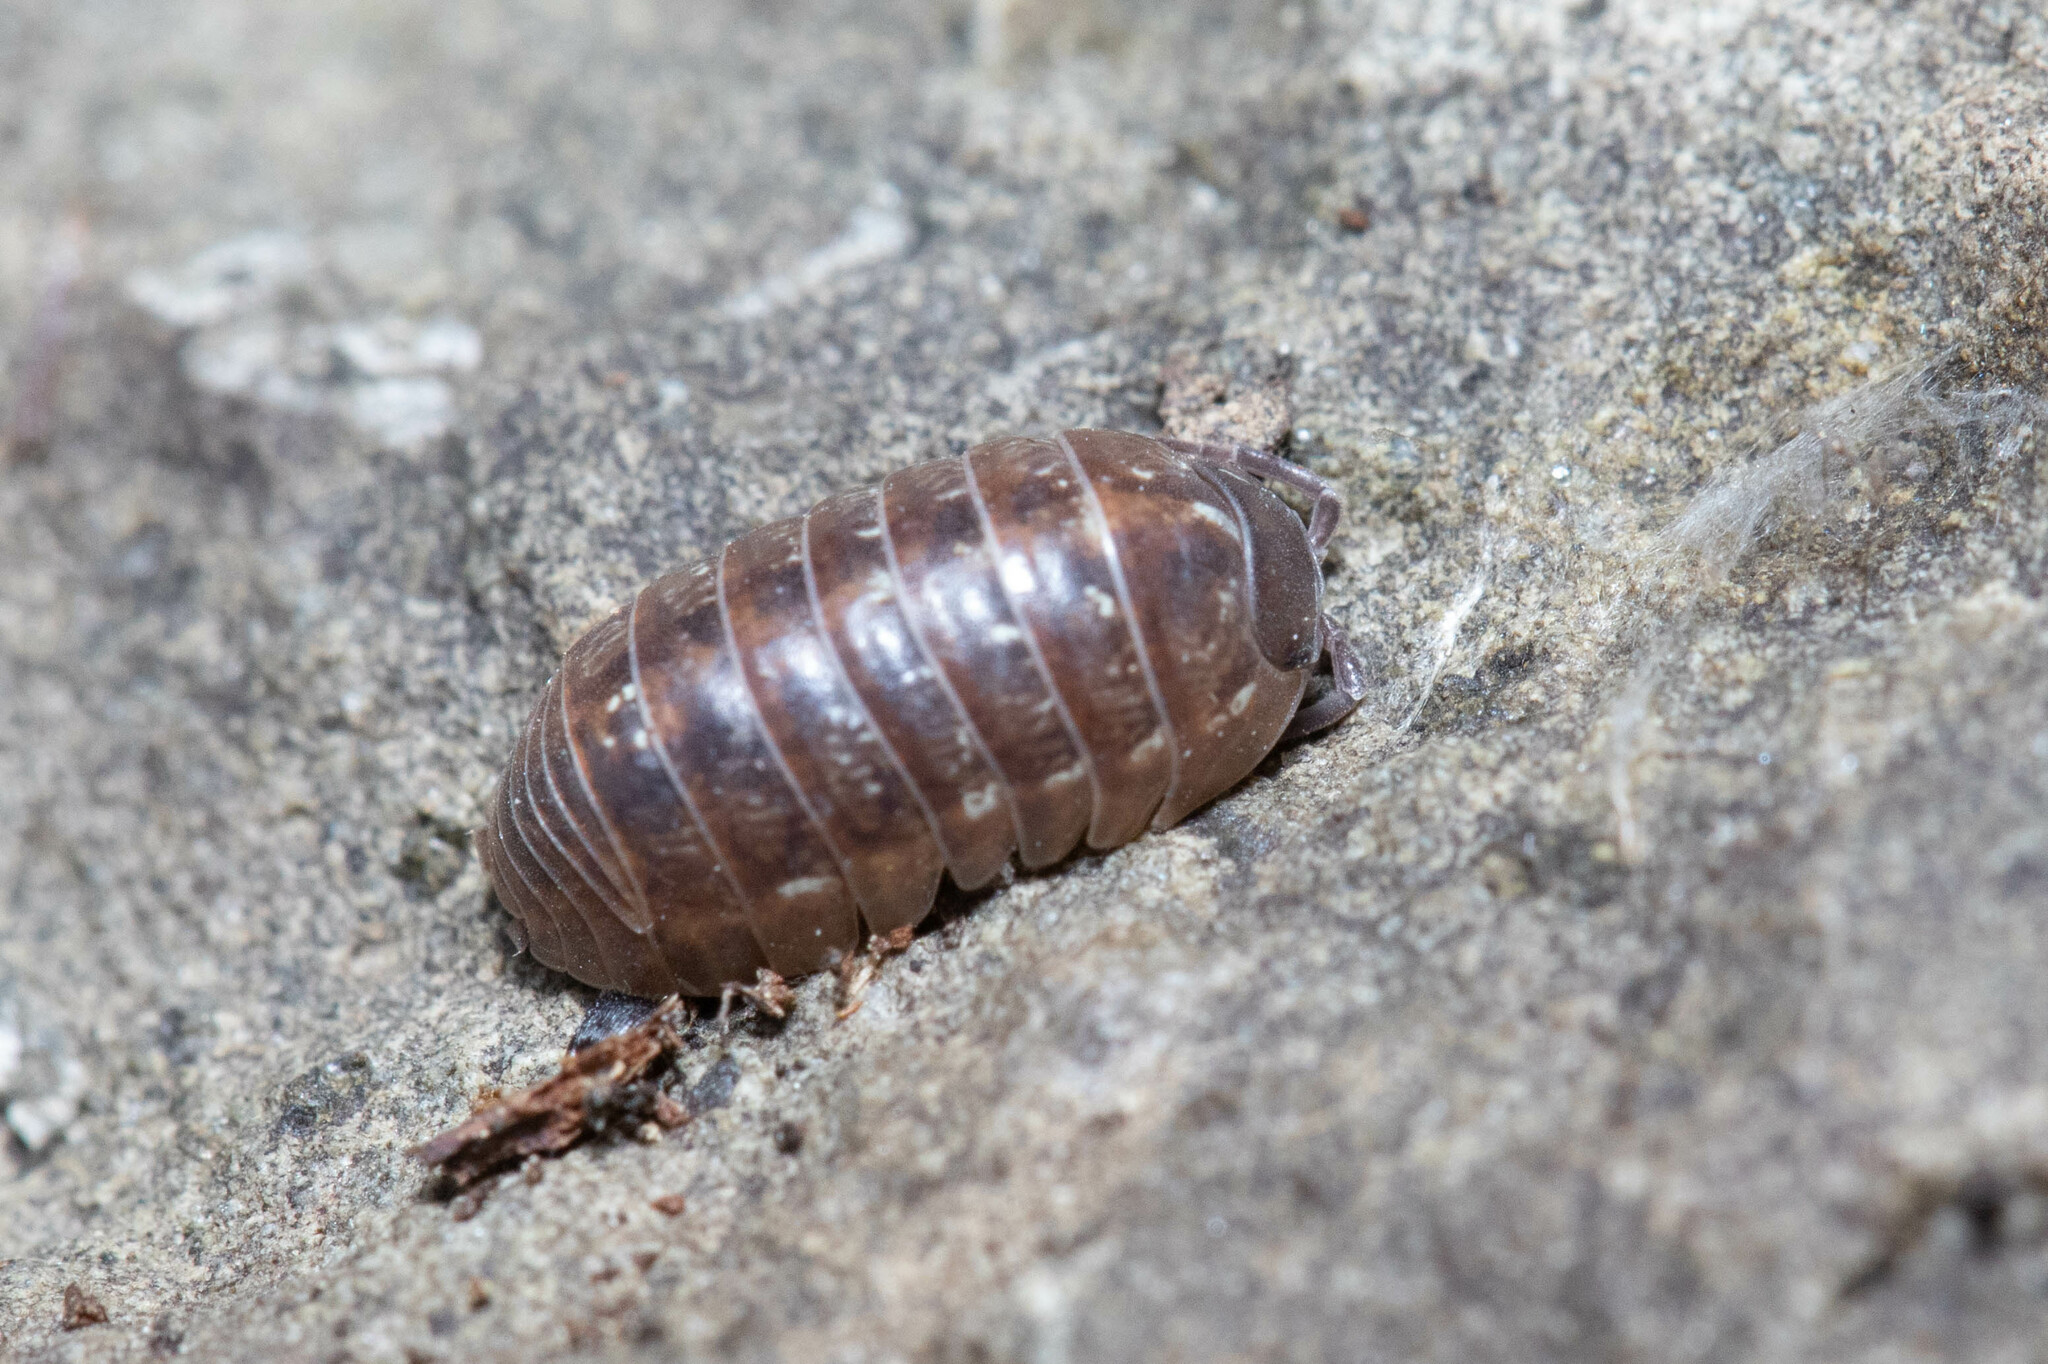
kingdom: Animalia
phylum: Arthropoda
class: Malacostraca
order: Isopoda
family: Armadillidiidae
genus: Armadillidium
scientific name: Armadillidium vulgare
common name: Common pill woodlouse
